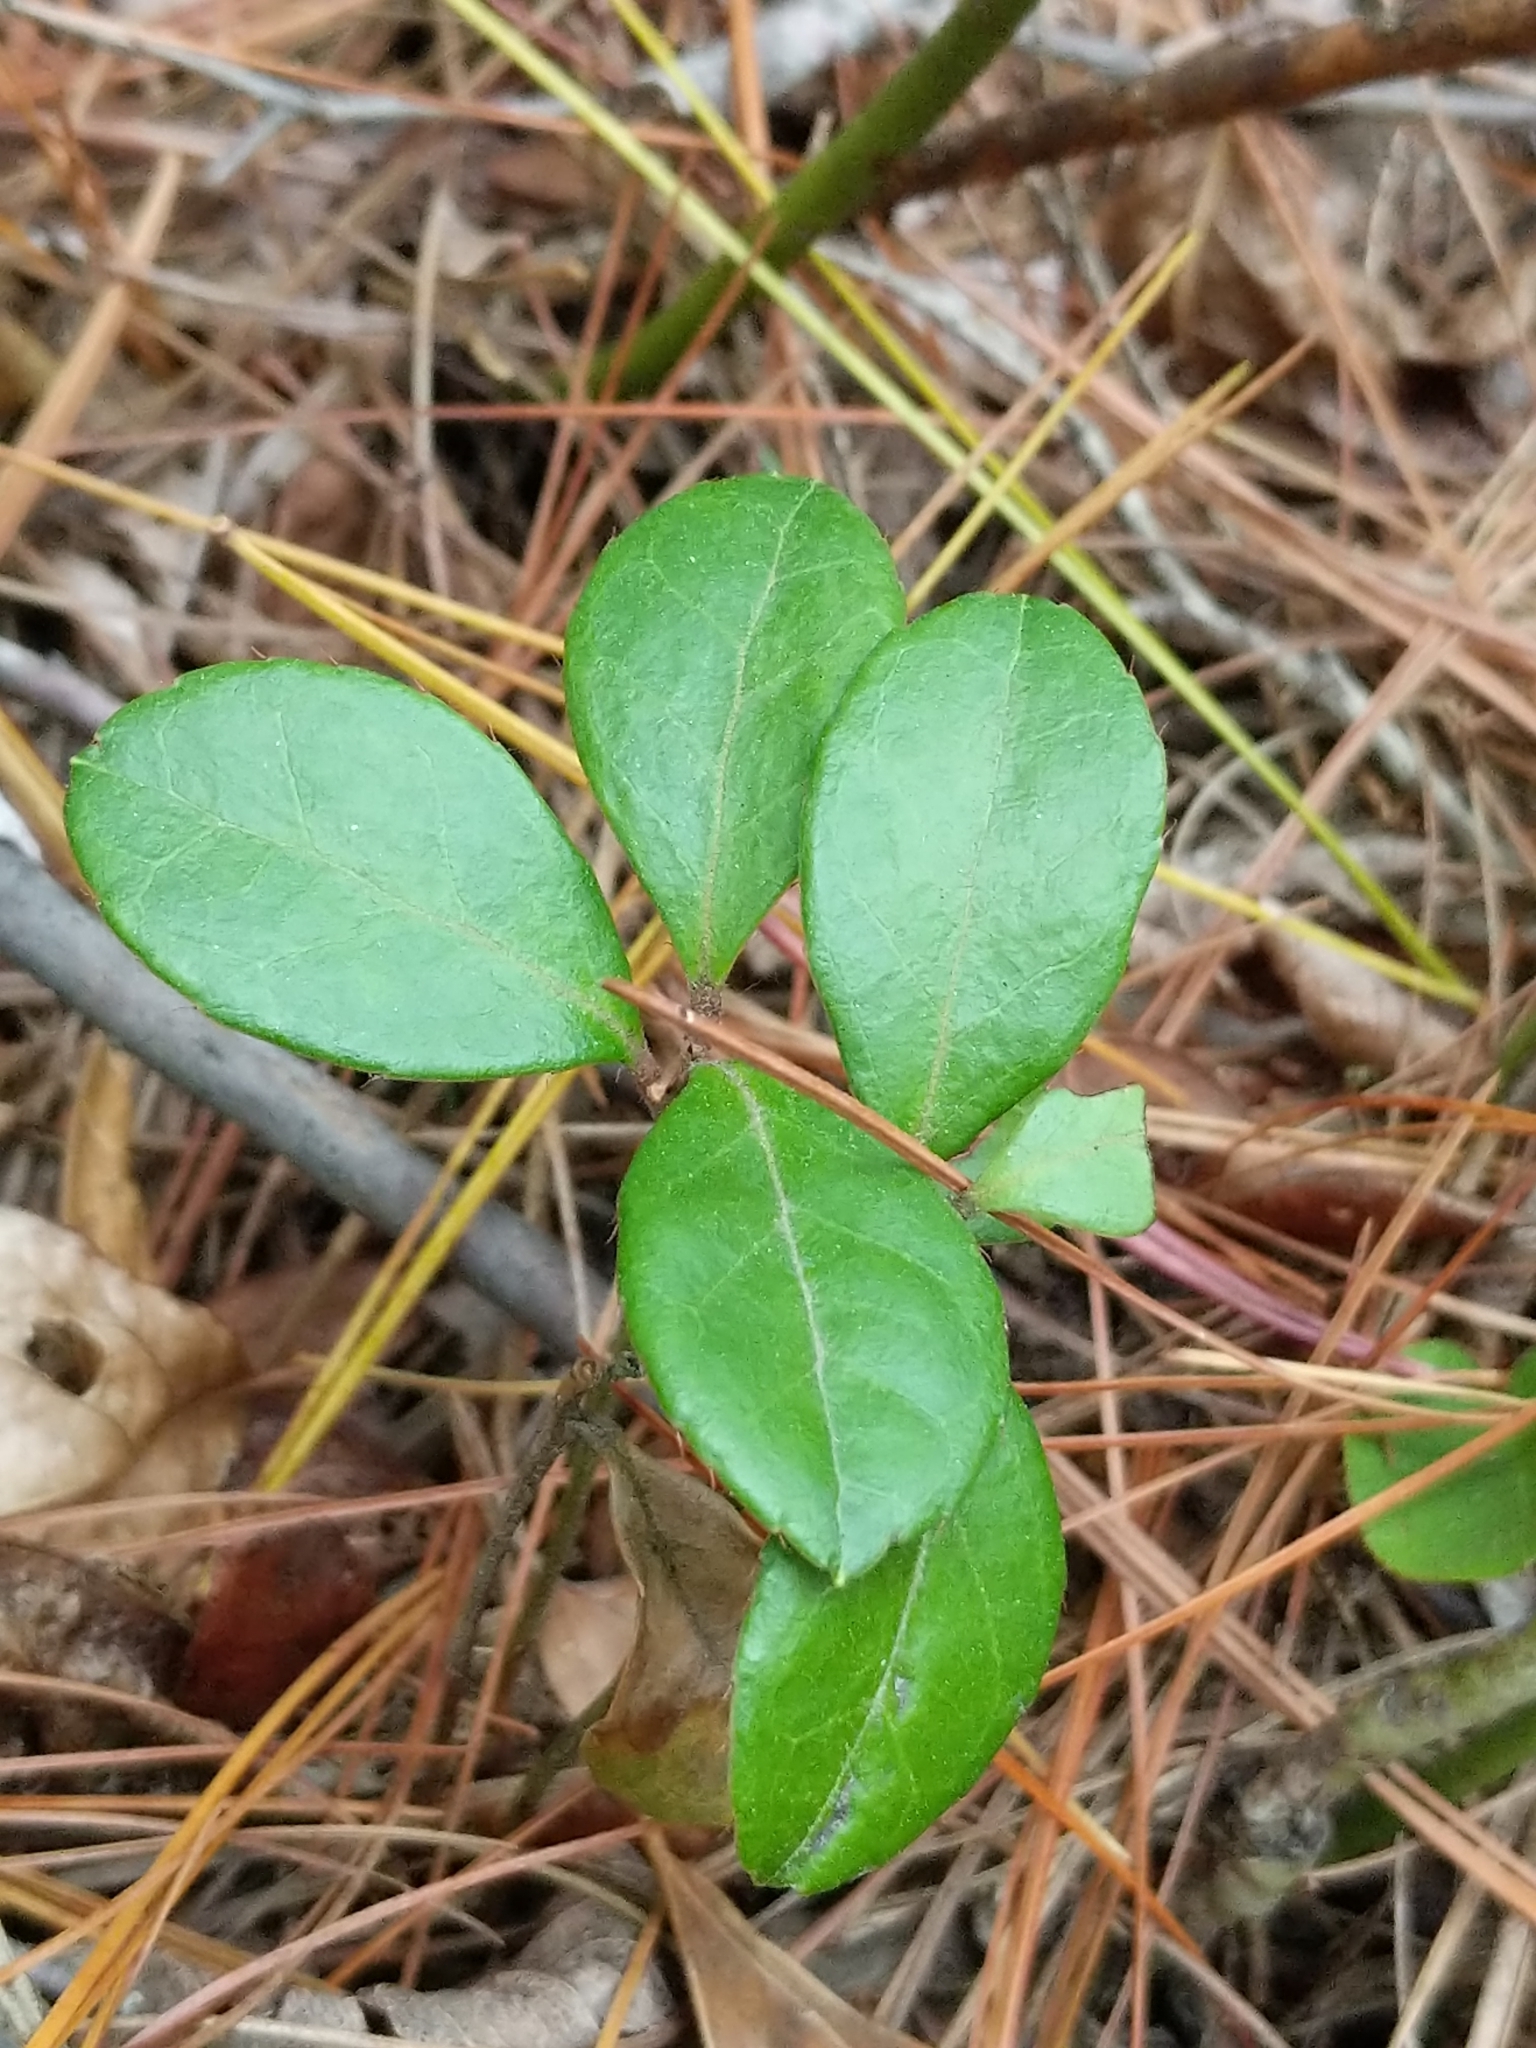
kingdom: Plantae
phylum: Tracheophyta
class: Magnoliopsida
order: Ericales
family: Ericaceae
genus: Gaultheria
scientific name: Gaultheria procumbens
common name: Checkerberry
